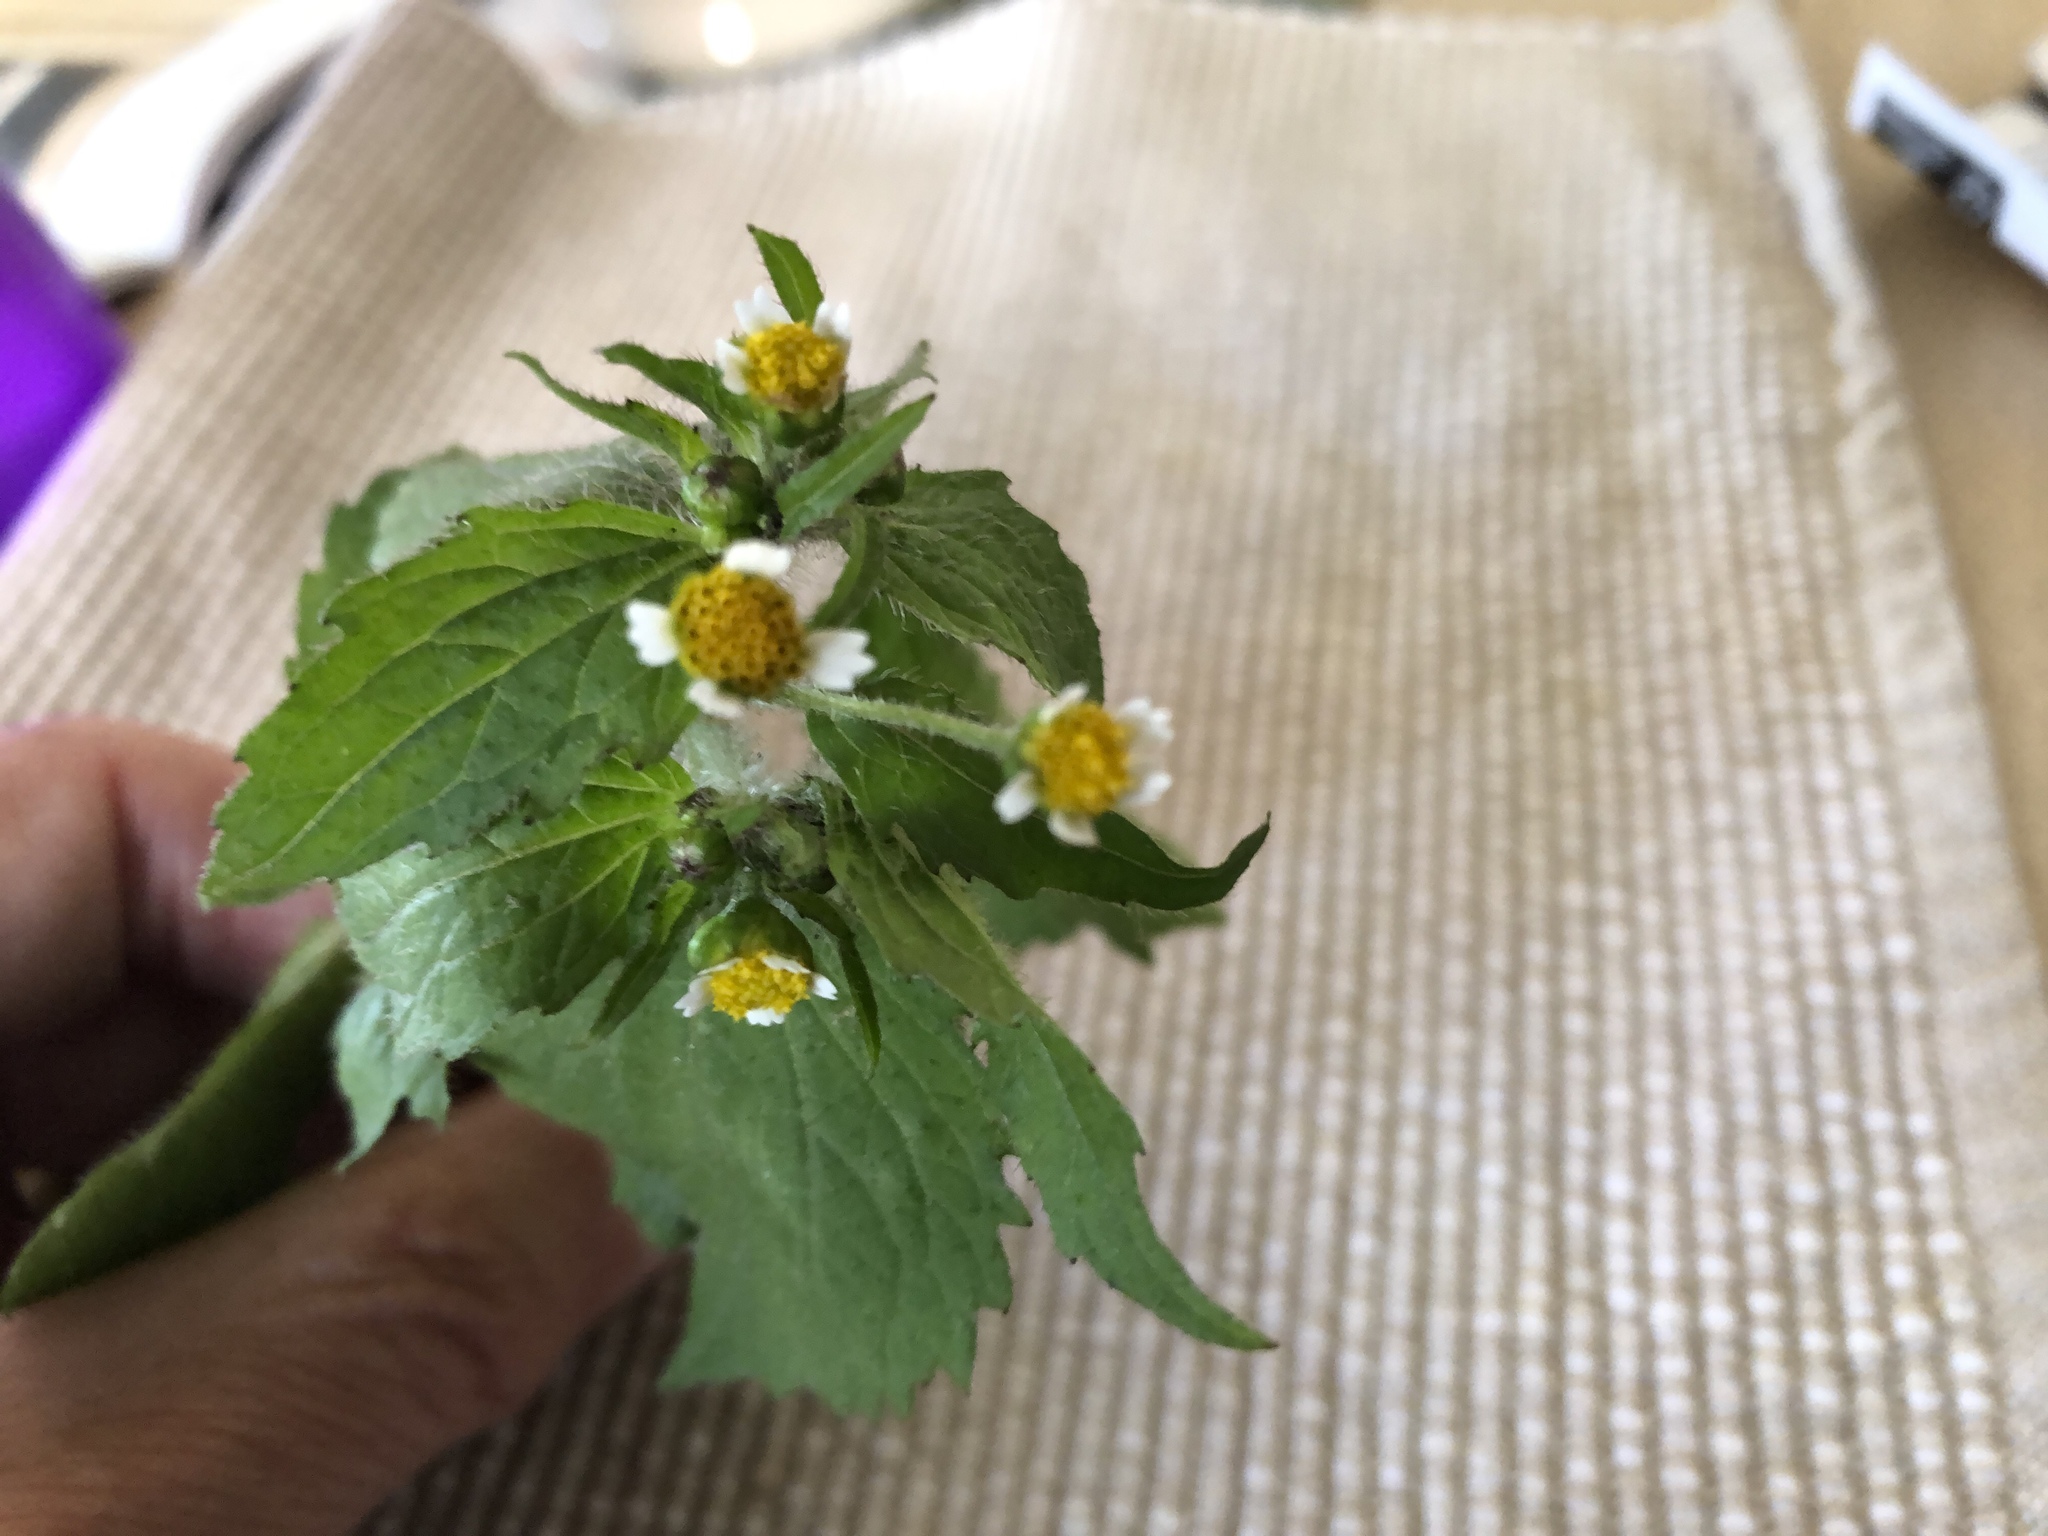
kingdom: Plantae
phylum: Tracheophyta
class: Magnoliopsida
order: Asterales
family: Asteraceae
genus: Galinsoga
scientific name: Galinsoga quadriradiata
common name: Shaggy soldier
